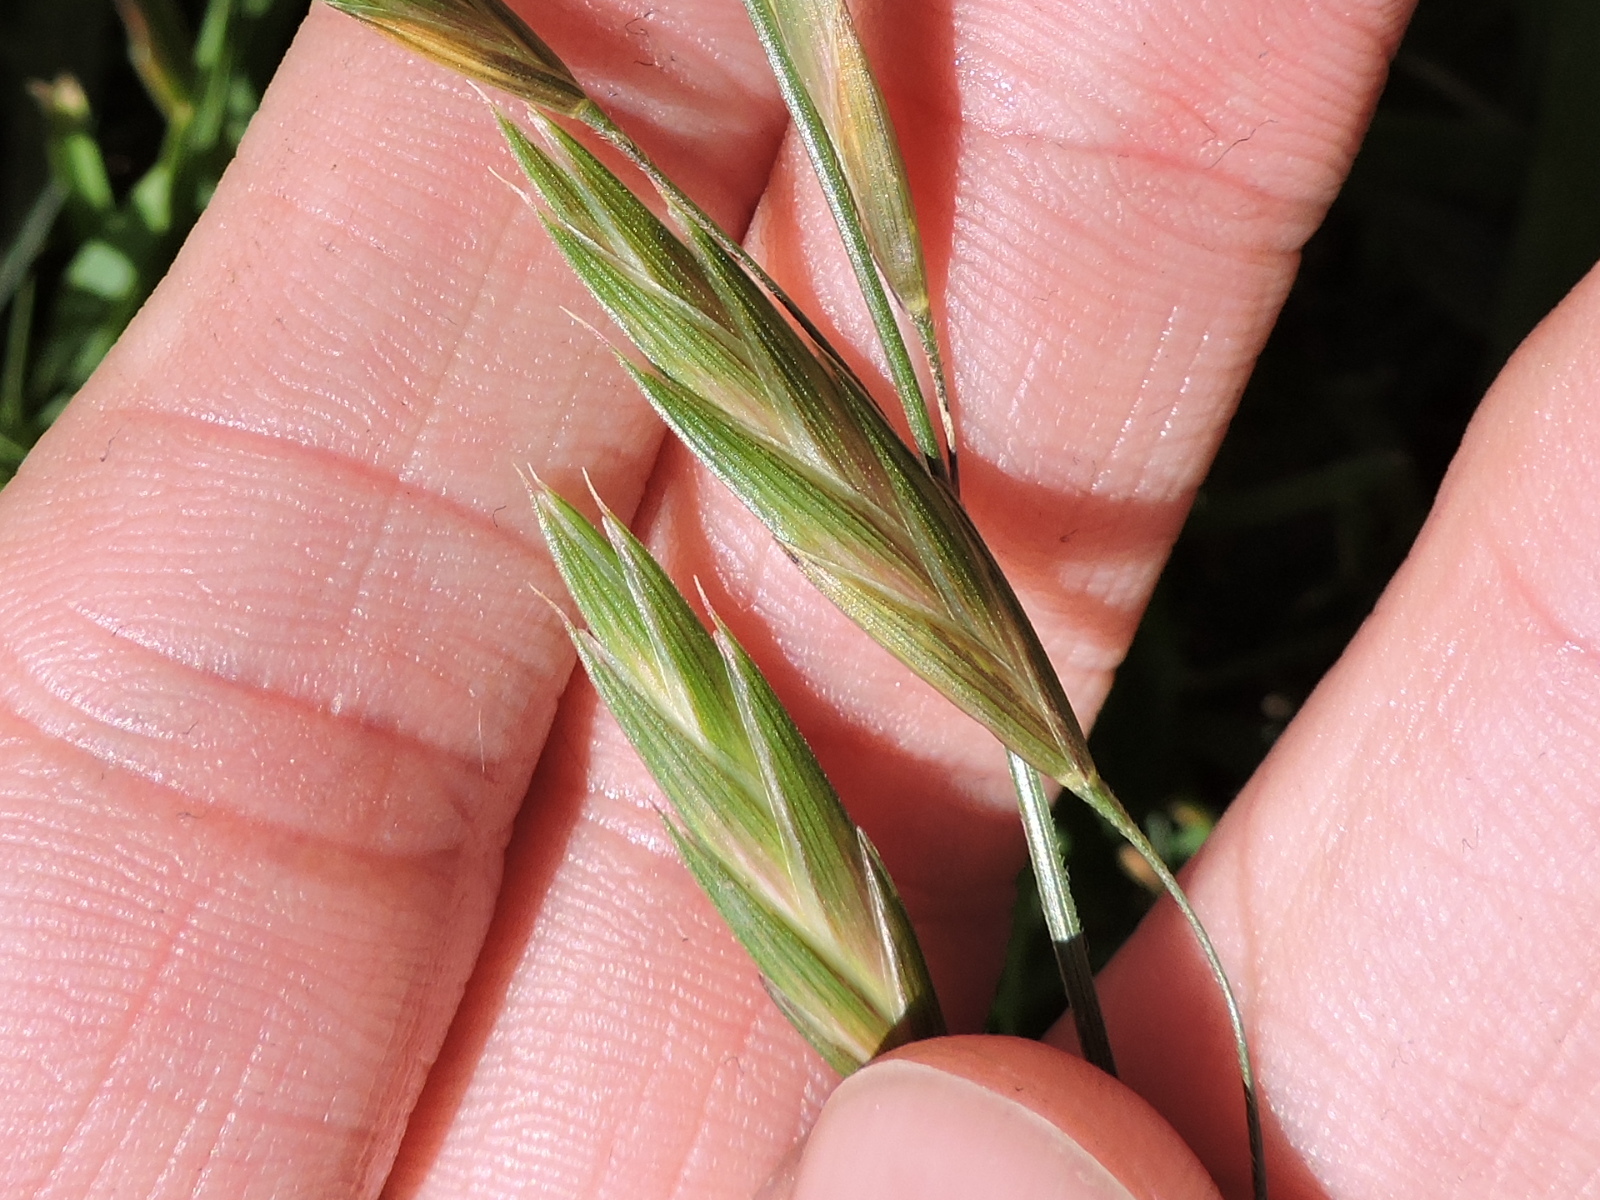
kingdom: Plantae
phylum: Tracheophyta
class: Liliopsida
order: Poales
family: Poaceae
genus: Bromus
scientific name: Bromus catharticus
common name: Rescuegrass
